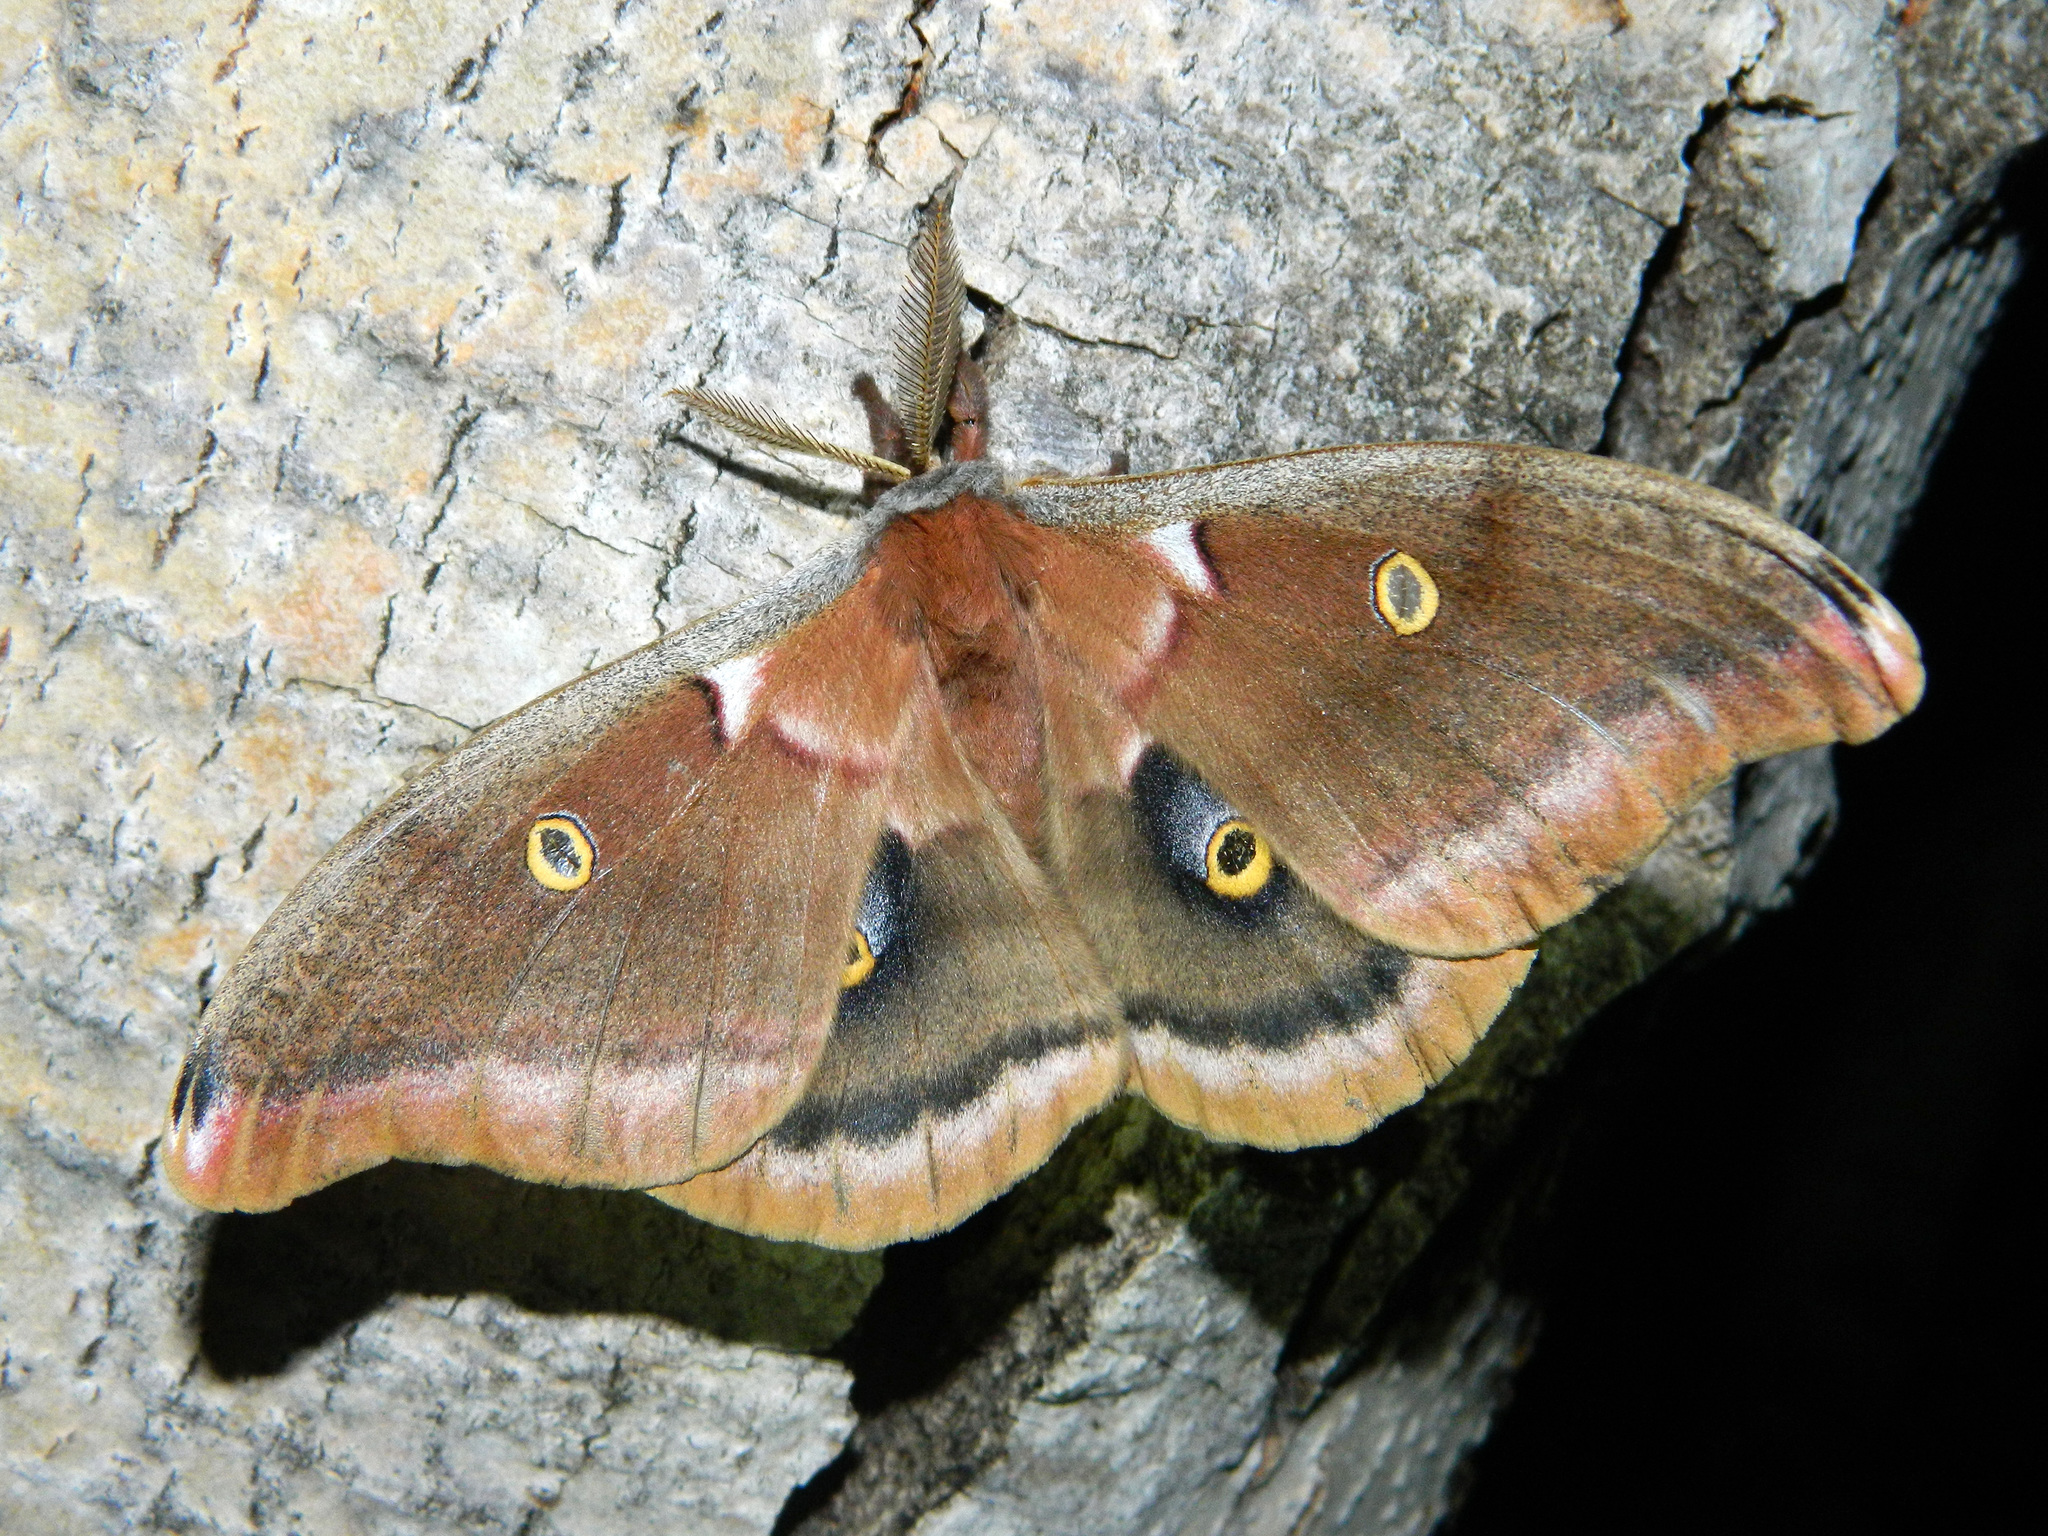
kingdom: Animalia
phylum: Arthropoda
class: Insecta
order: Lepidoptera
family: Saturniidae
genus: Antheraea
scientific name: Antheraea polyphemus
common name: Polyphemus moth
